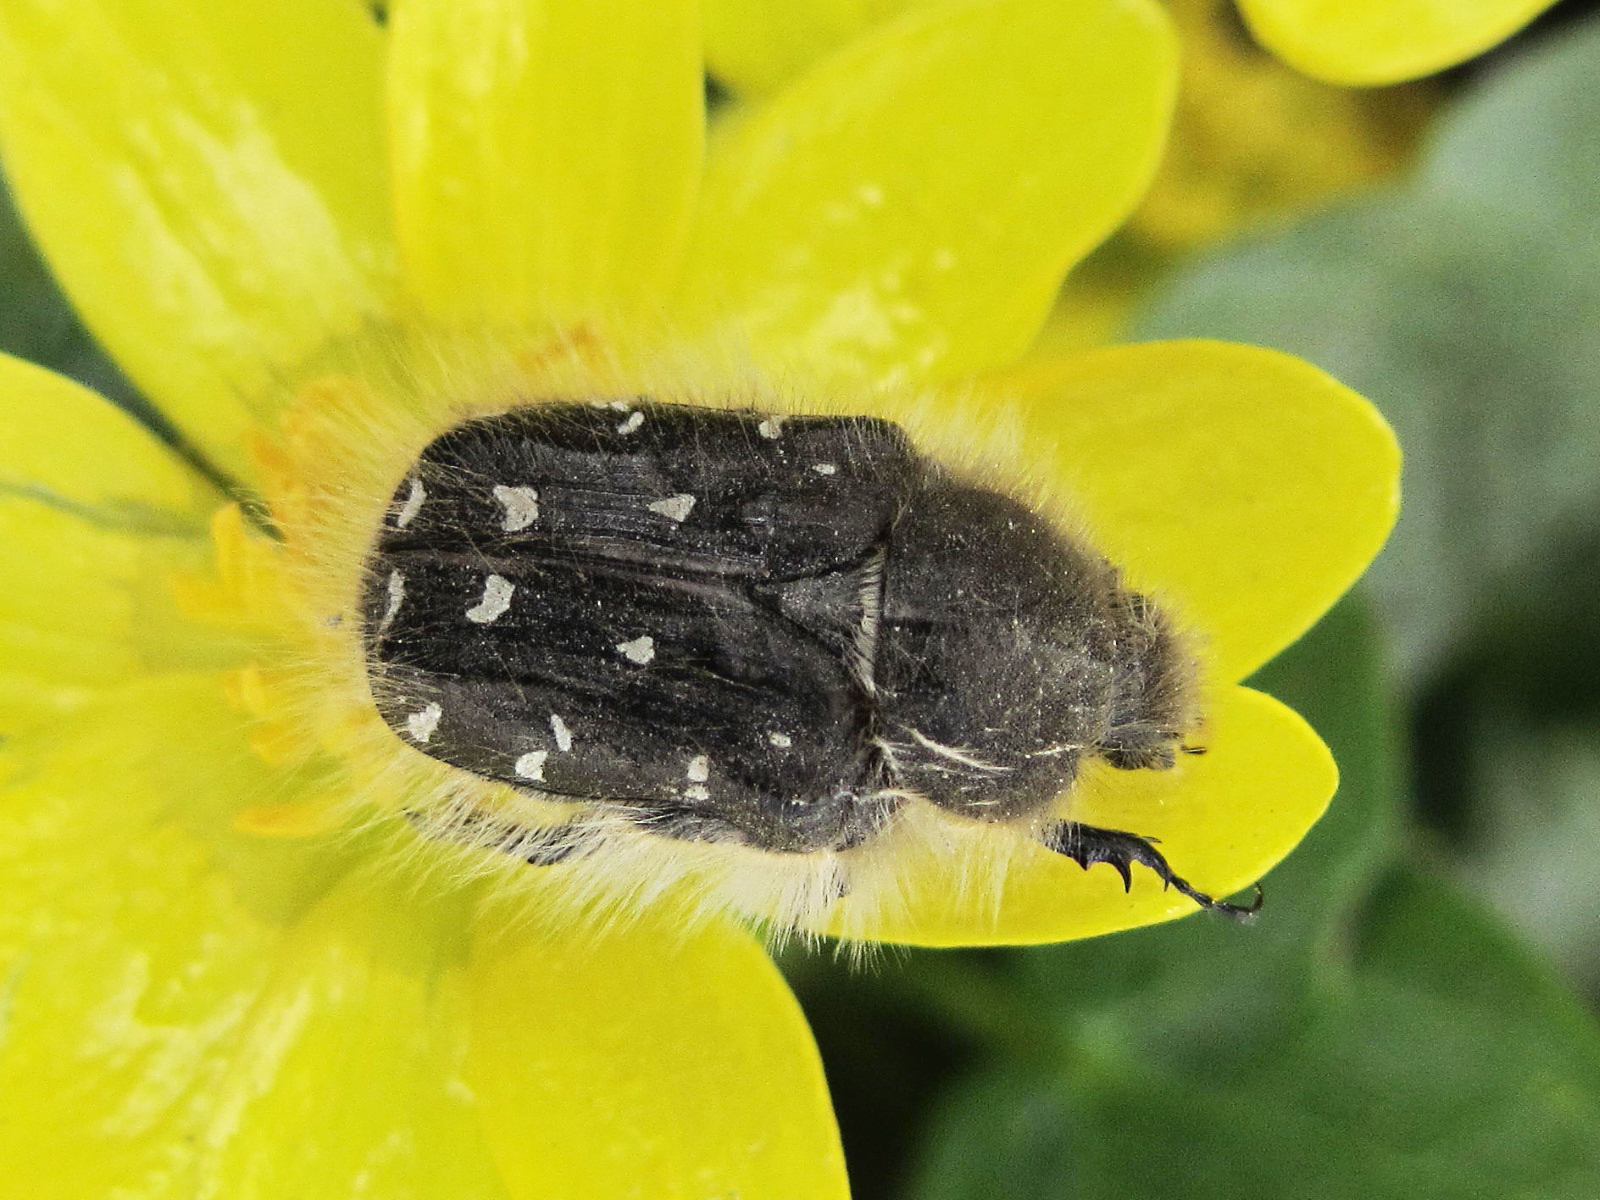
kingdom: Animalia
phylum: Arthropoda
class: Insecta
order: Coleoptera
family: Scarabaeidae
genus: Tropinota
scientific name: Tropinota hirta
